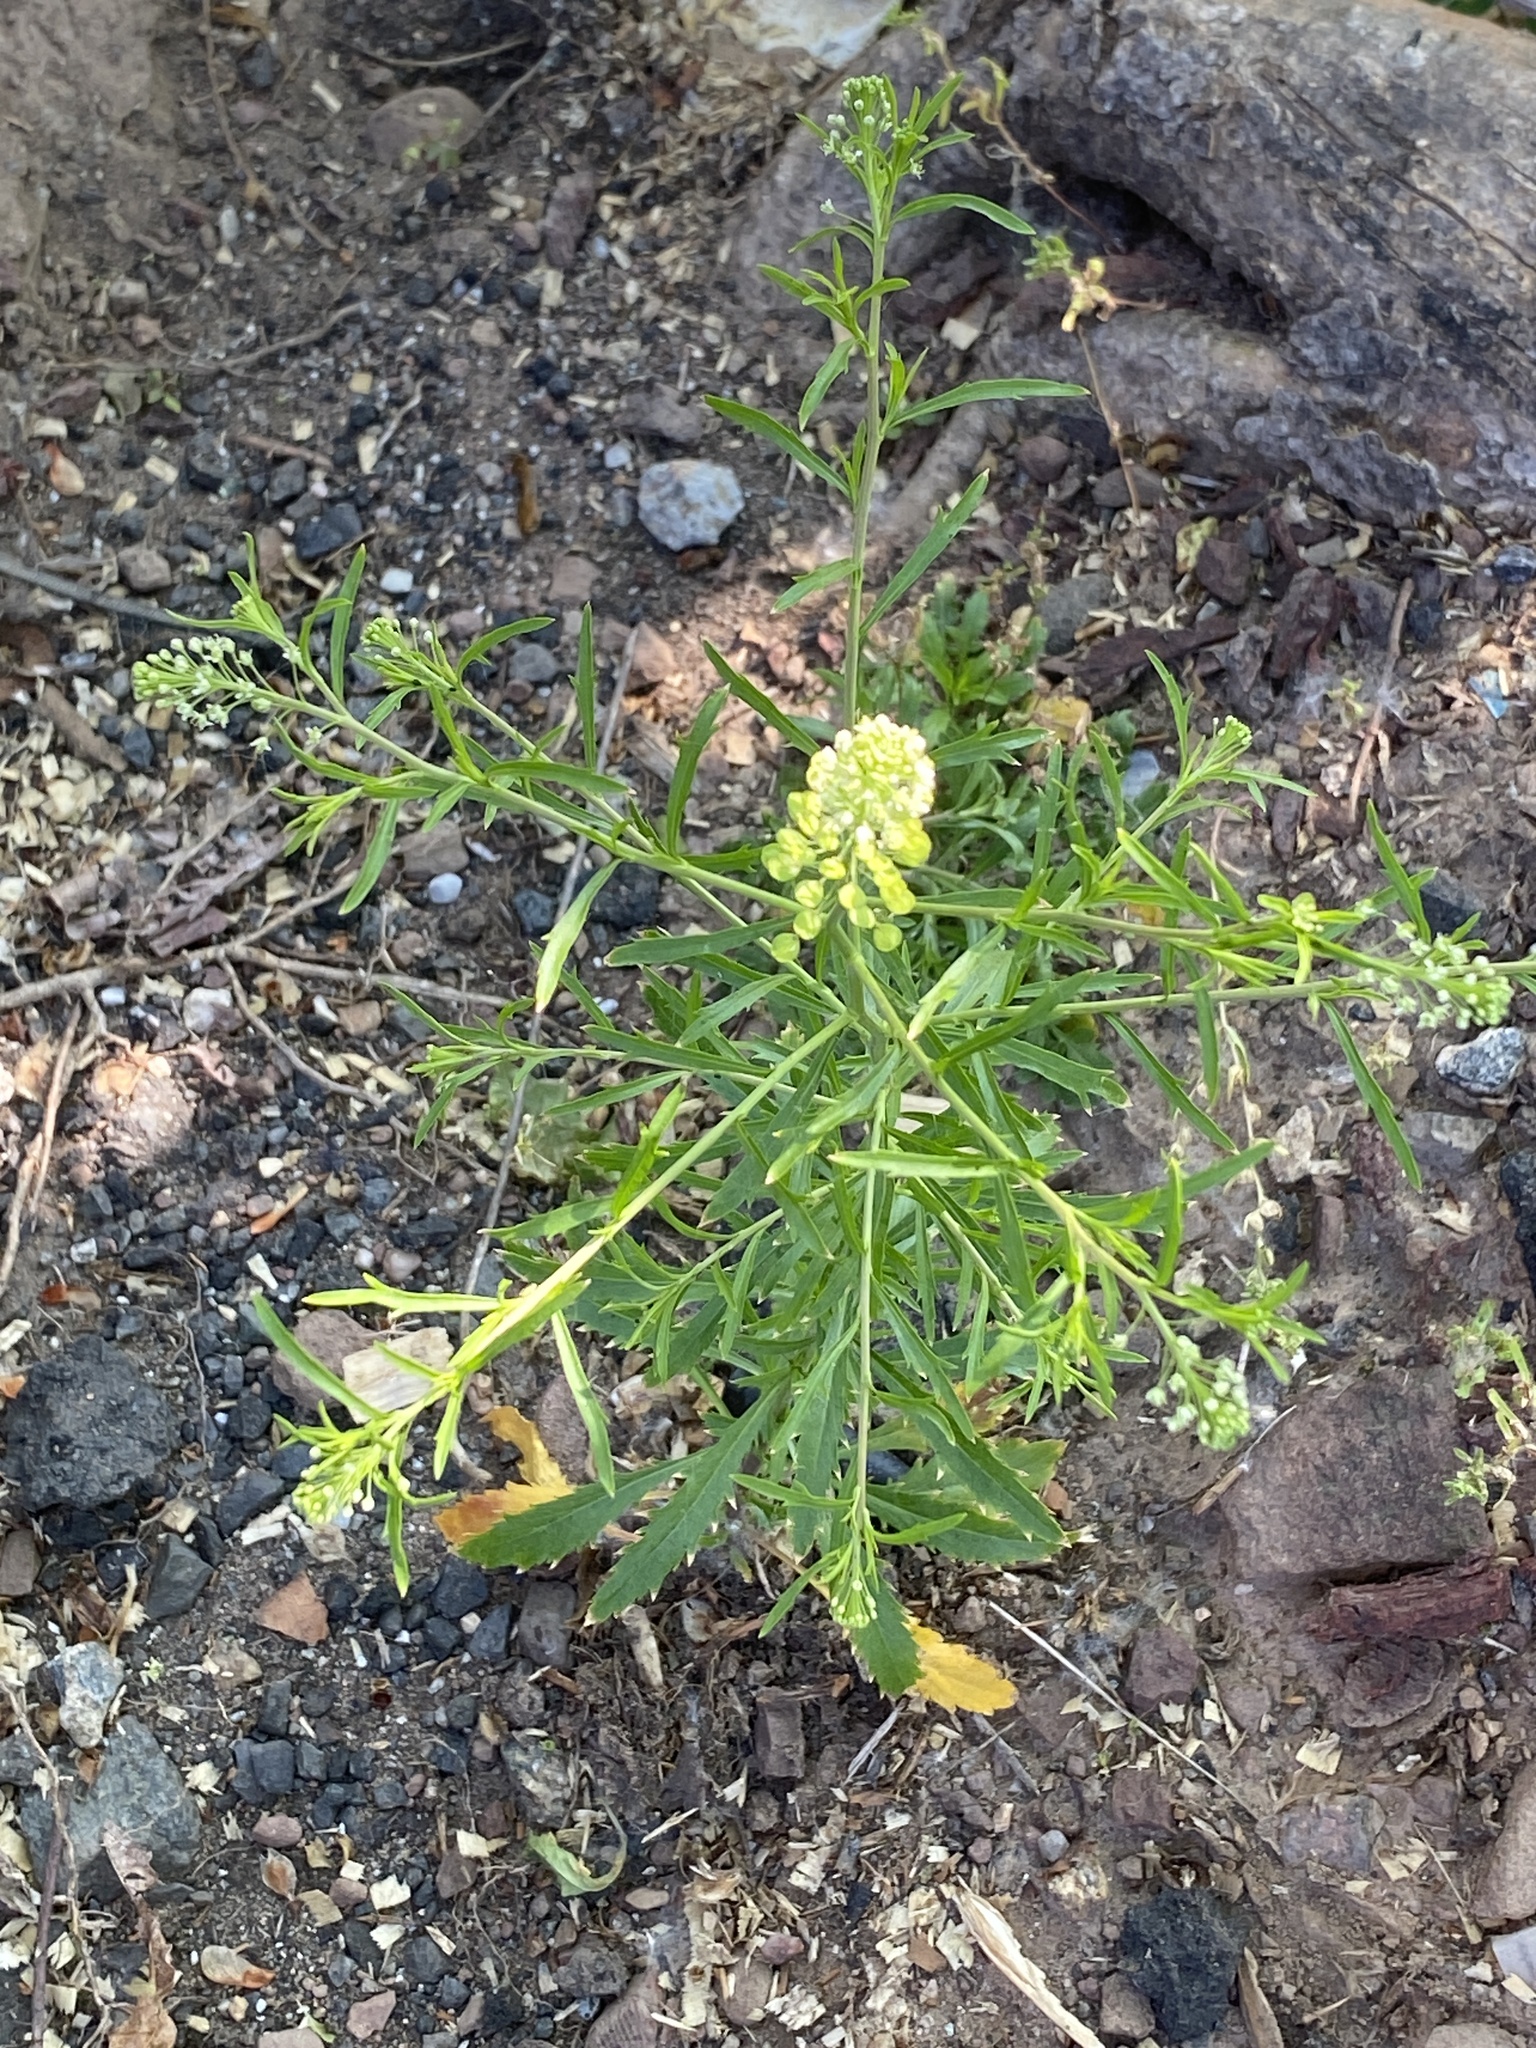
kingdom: Plantae
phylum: Tracheophyta
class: Magnoliopsida
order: Brassicales
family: Brassicaceae
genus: Lepidium
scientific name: Lepidium virginicum
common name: Least pepperwort
